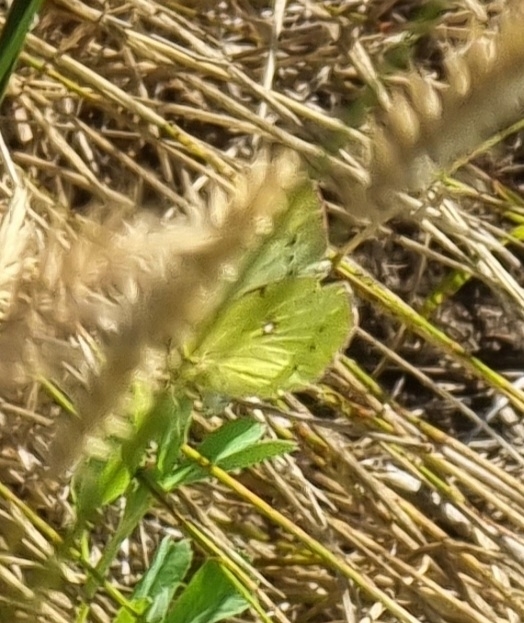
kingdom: Animalia
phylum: Arthropoda
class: Insecta
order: Lepidoptera
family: Pieridae
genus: Colias
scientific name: Colias hyale
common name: Pale clouded yellow
